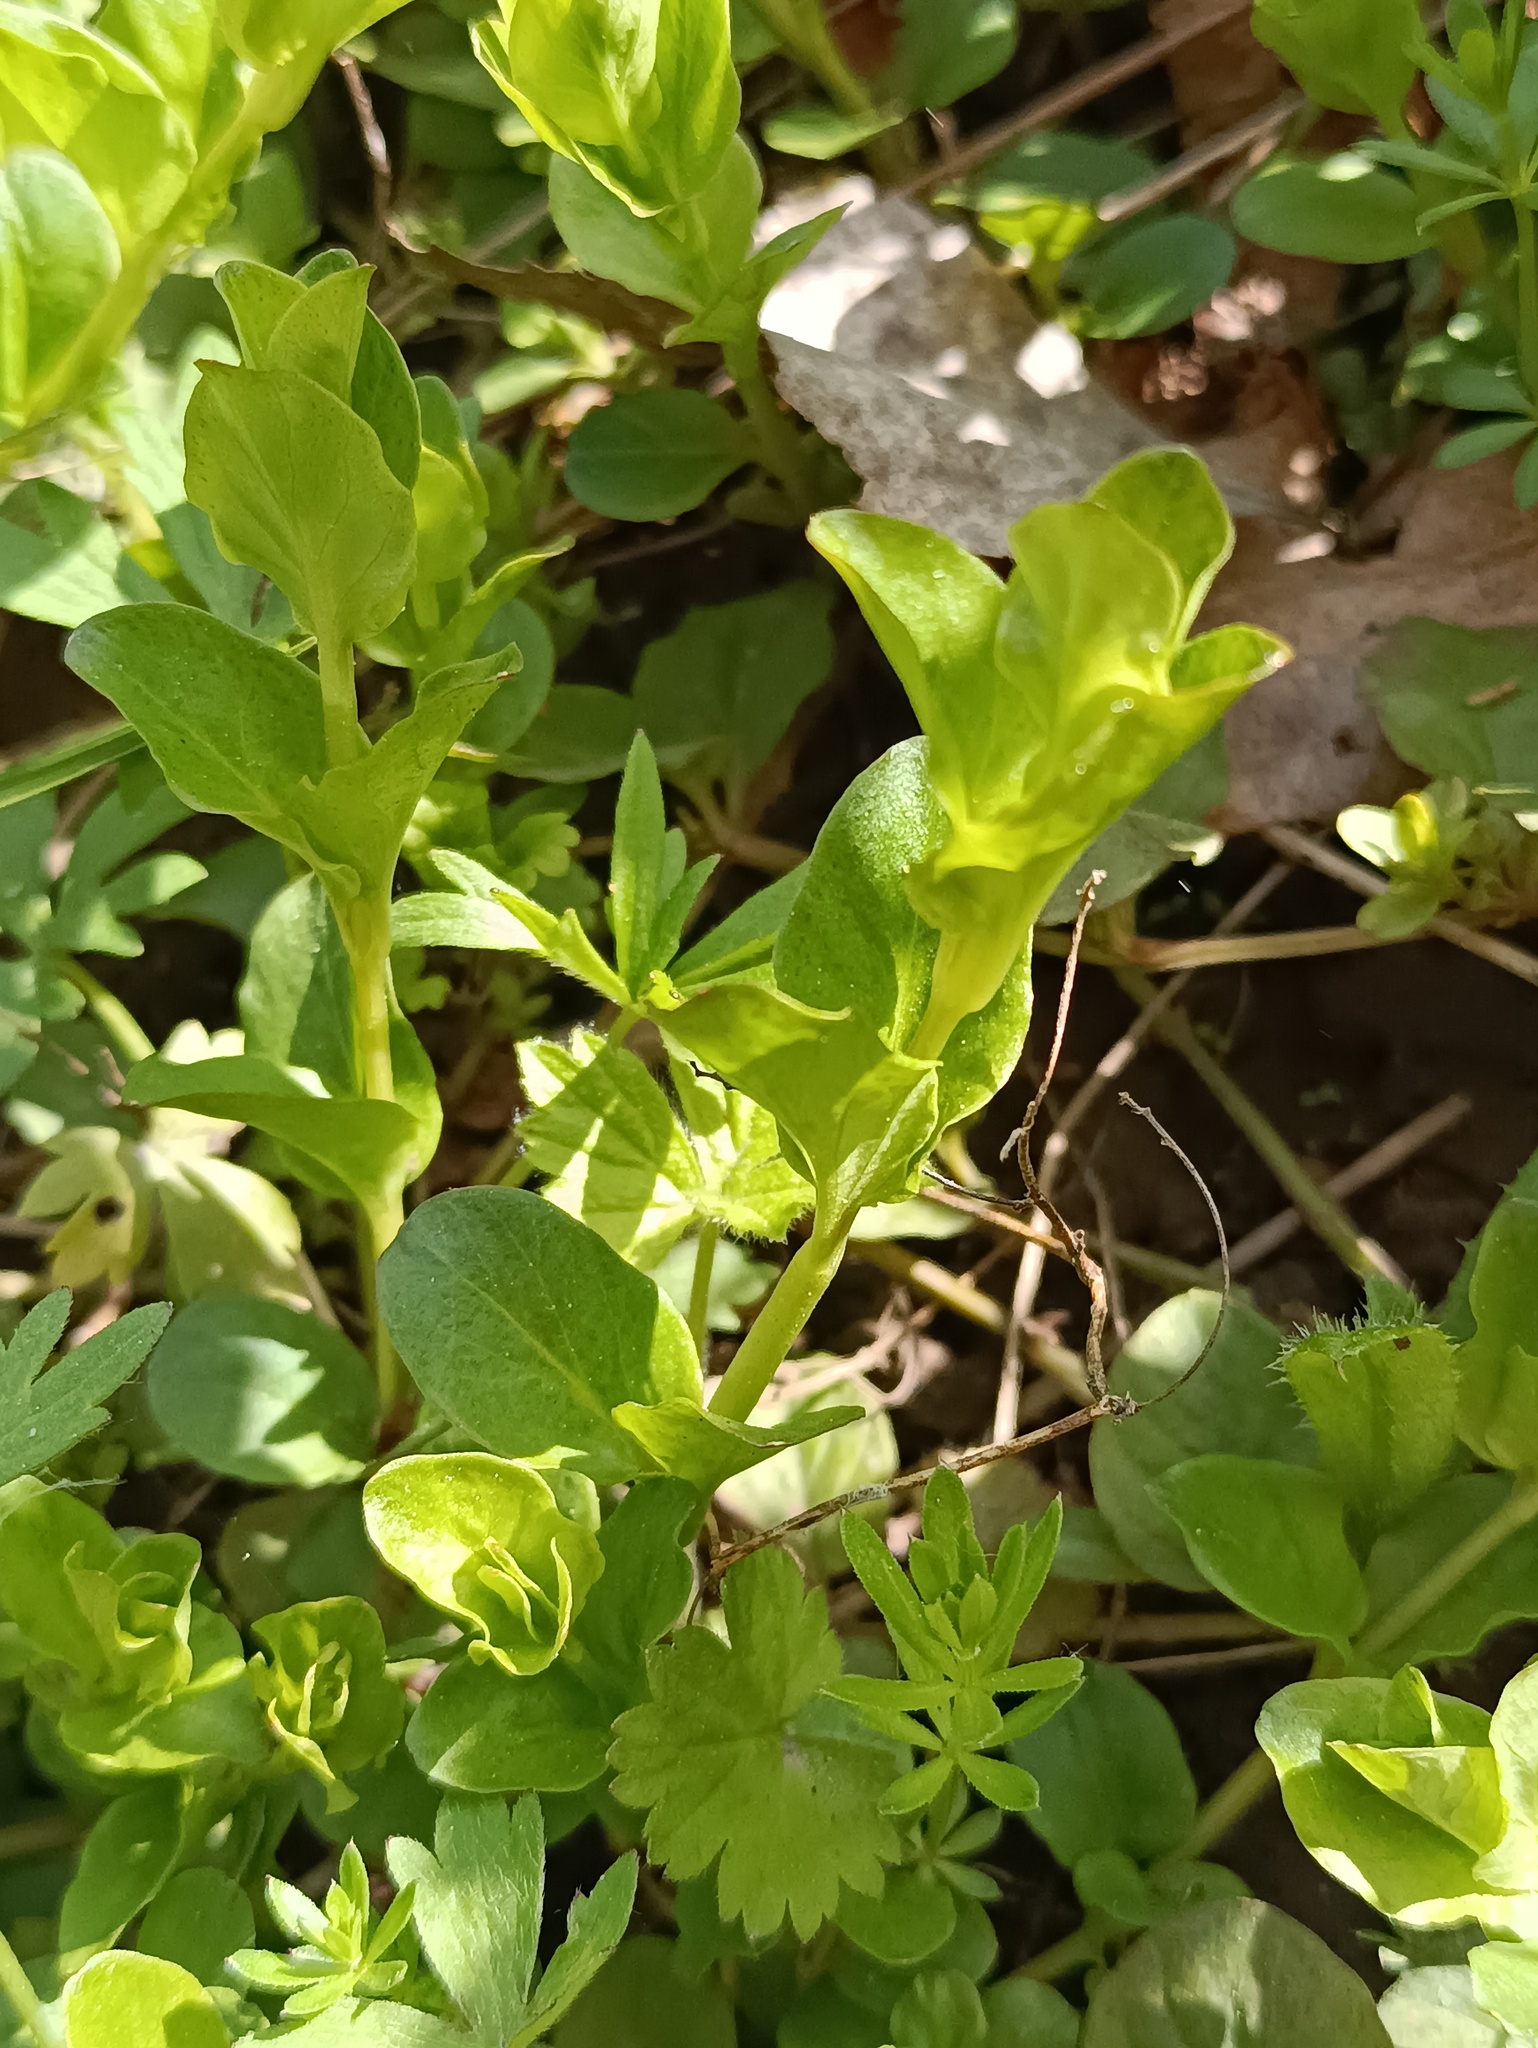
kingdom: Plantae
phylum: Tracheophyta
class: Magnoliopsida
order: Ericales
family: Primulaceae
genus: Lysimachia
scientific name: Lysimachia nummularia
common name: Moneywort
